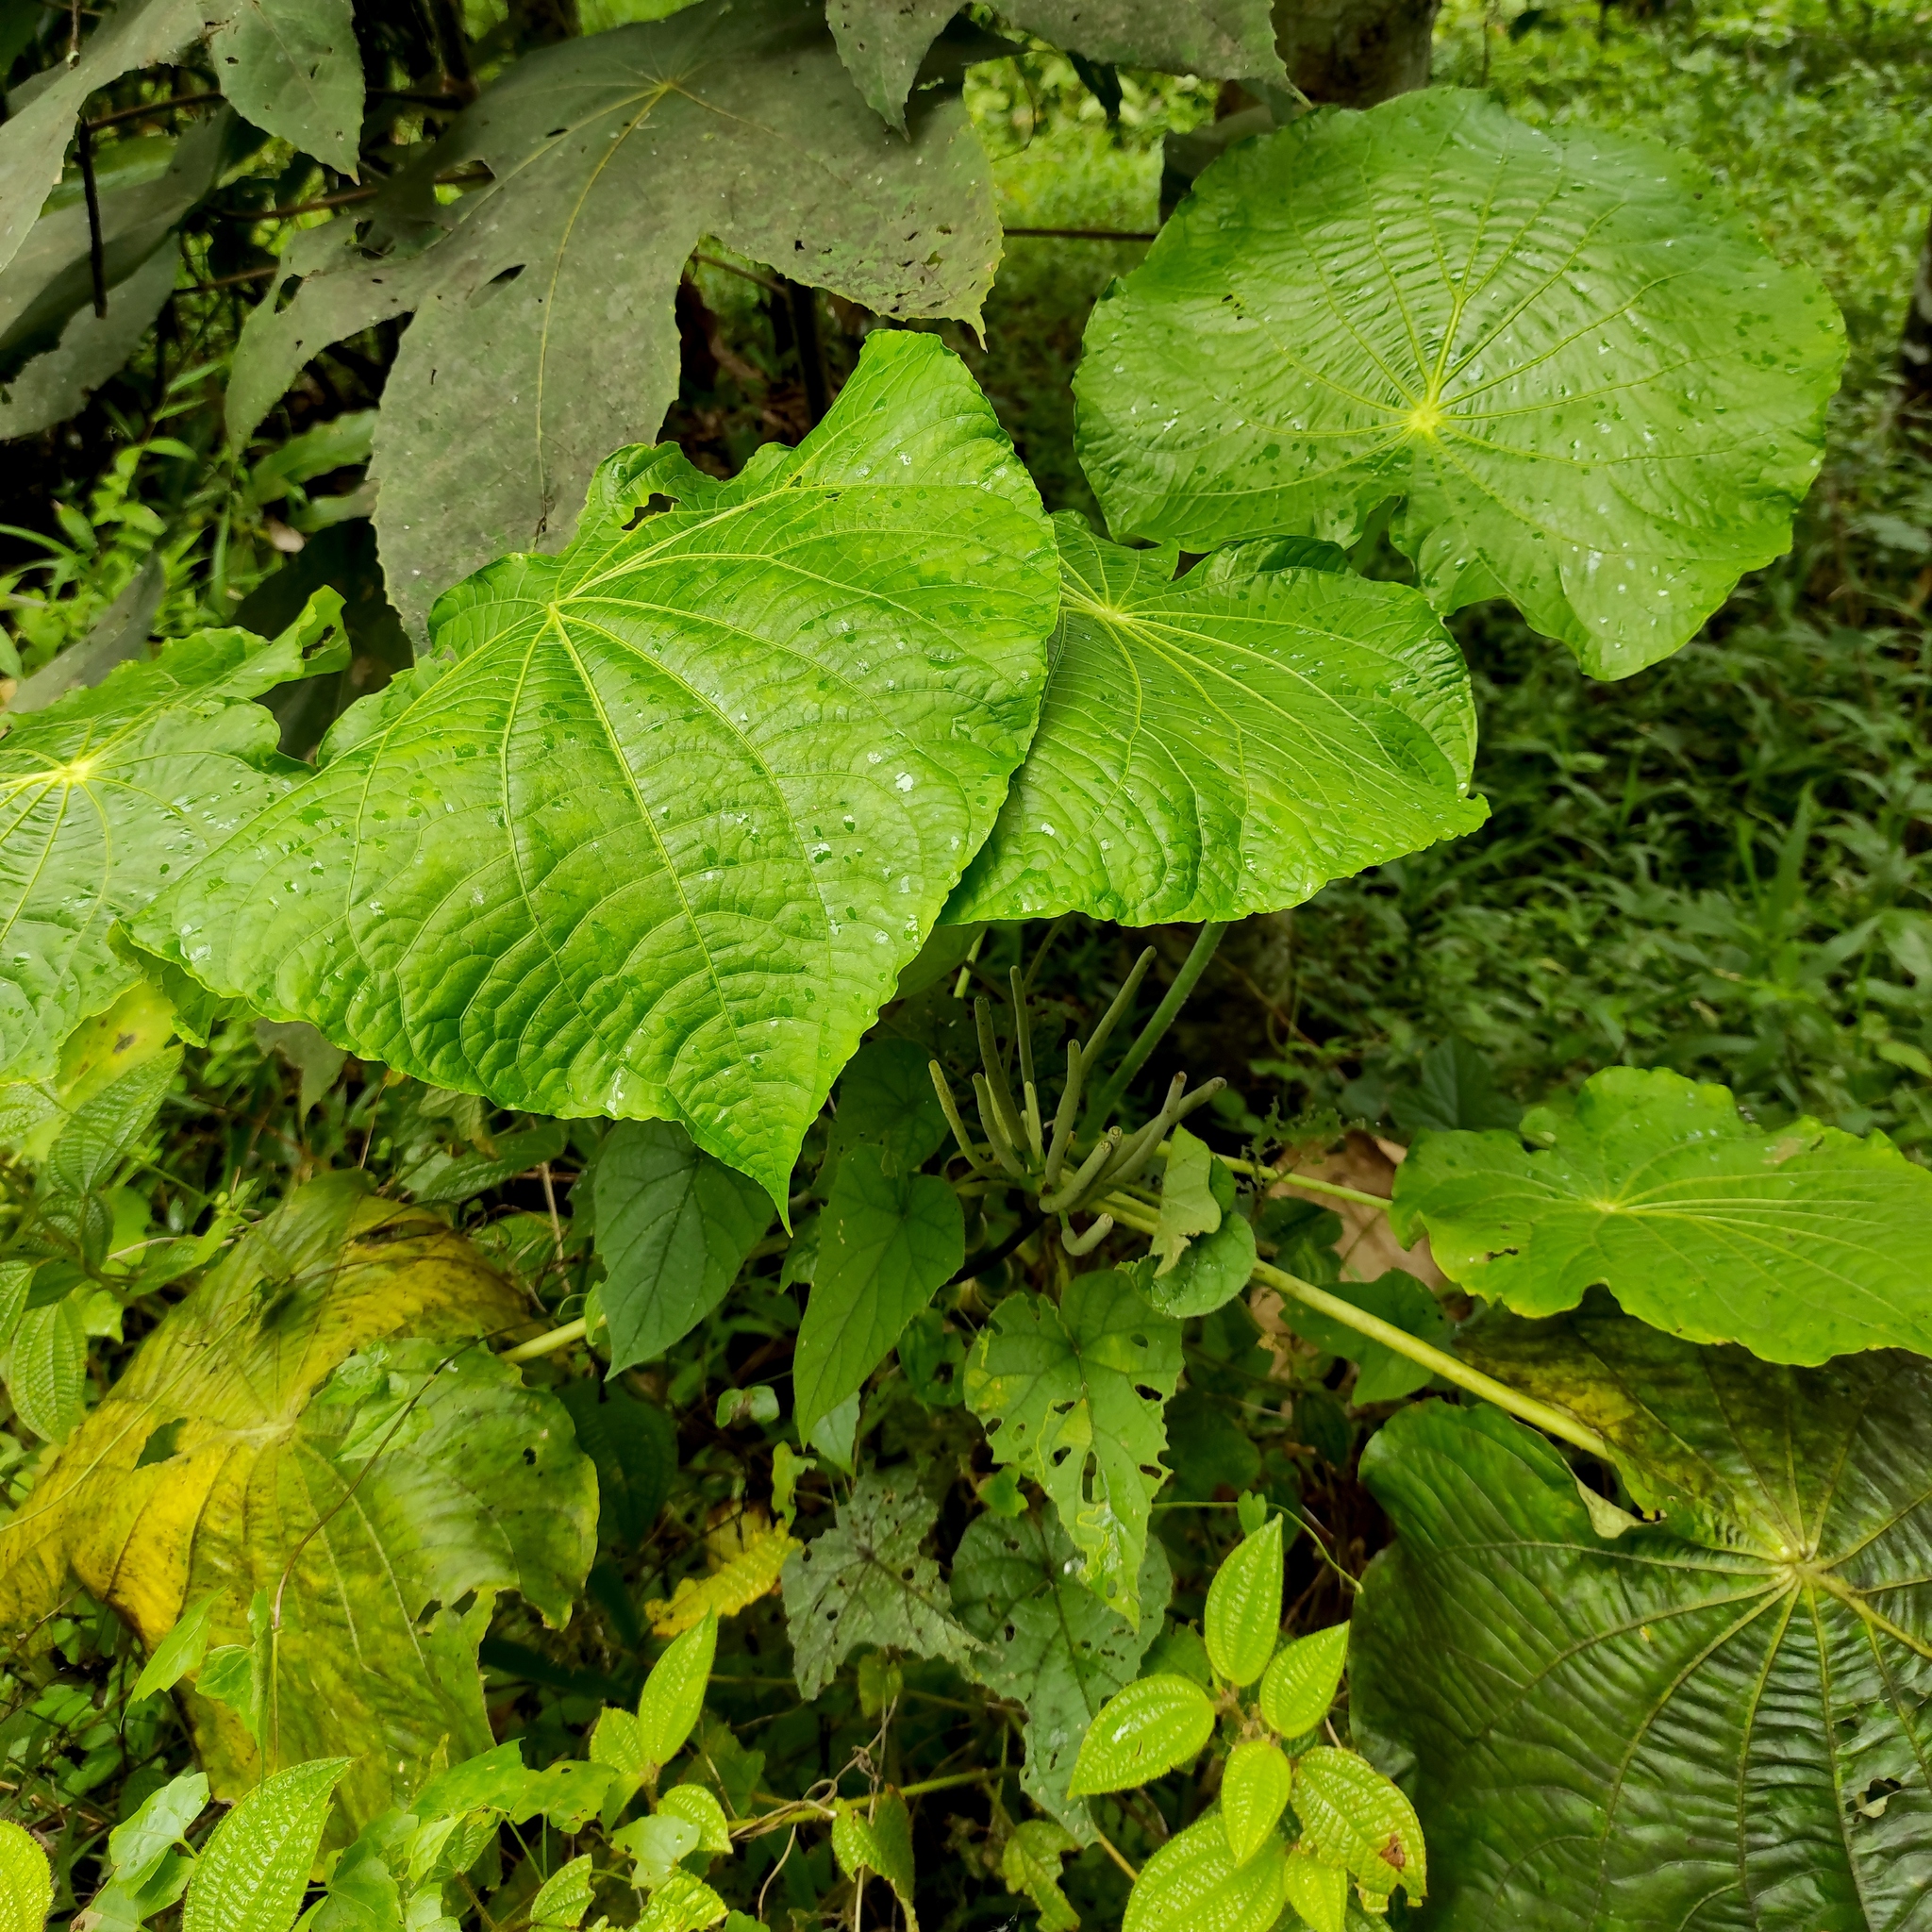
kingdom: Plantae
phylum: Tracheophyta
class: Magnoliopsida
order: Piperales
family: Piperaceae
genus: Piper
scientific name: Piper peltatum
